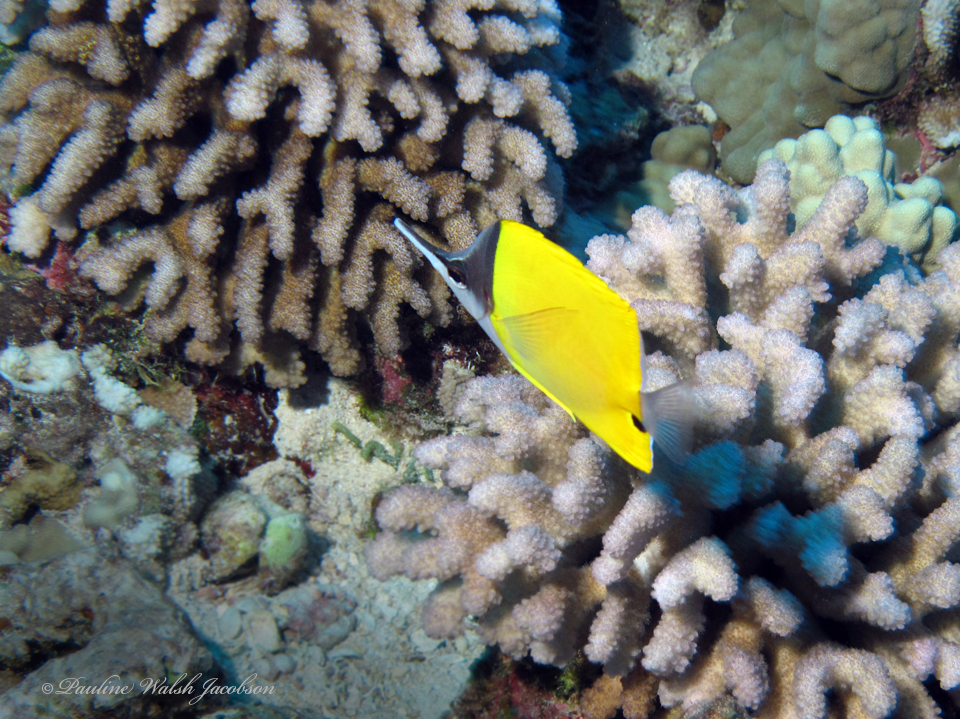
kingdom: Animalia
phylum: Chordata
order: Perciformes
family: Chaetodontidae
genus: Forcipiger
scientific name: Forcipiger flavissimus
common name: Forcepsfish
